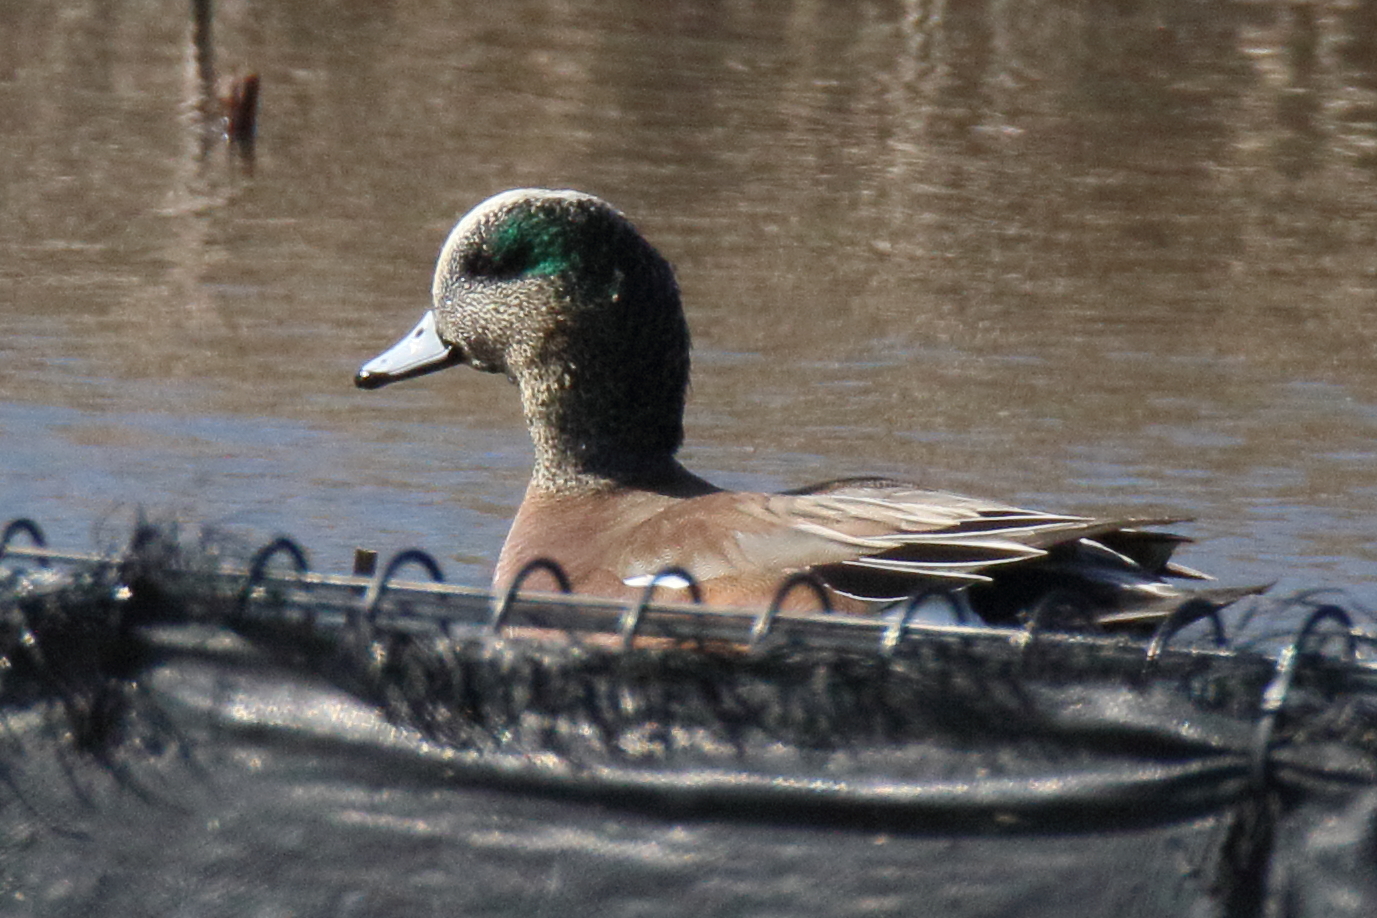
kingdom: Animalia
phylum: Chordata
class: Aves
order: Anseriformes
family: Anatidae
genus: Mareca
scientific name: Mareca americana
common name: American wigeon
